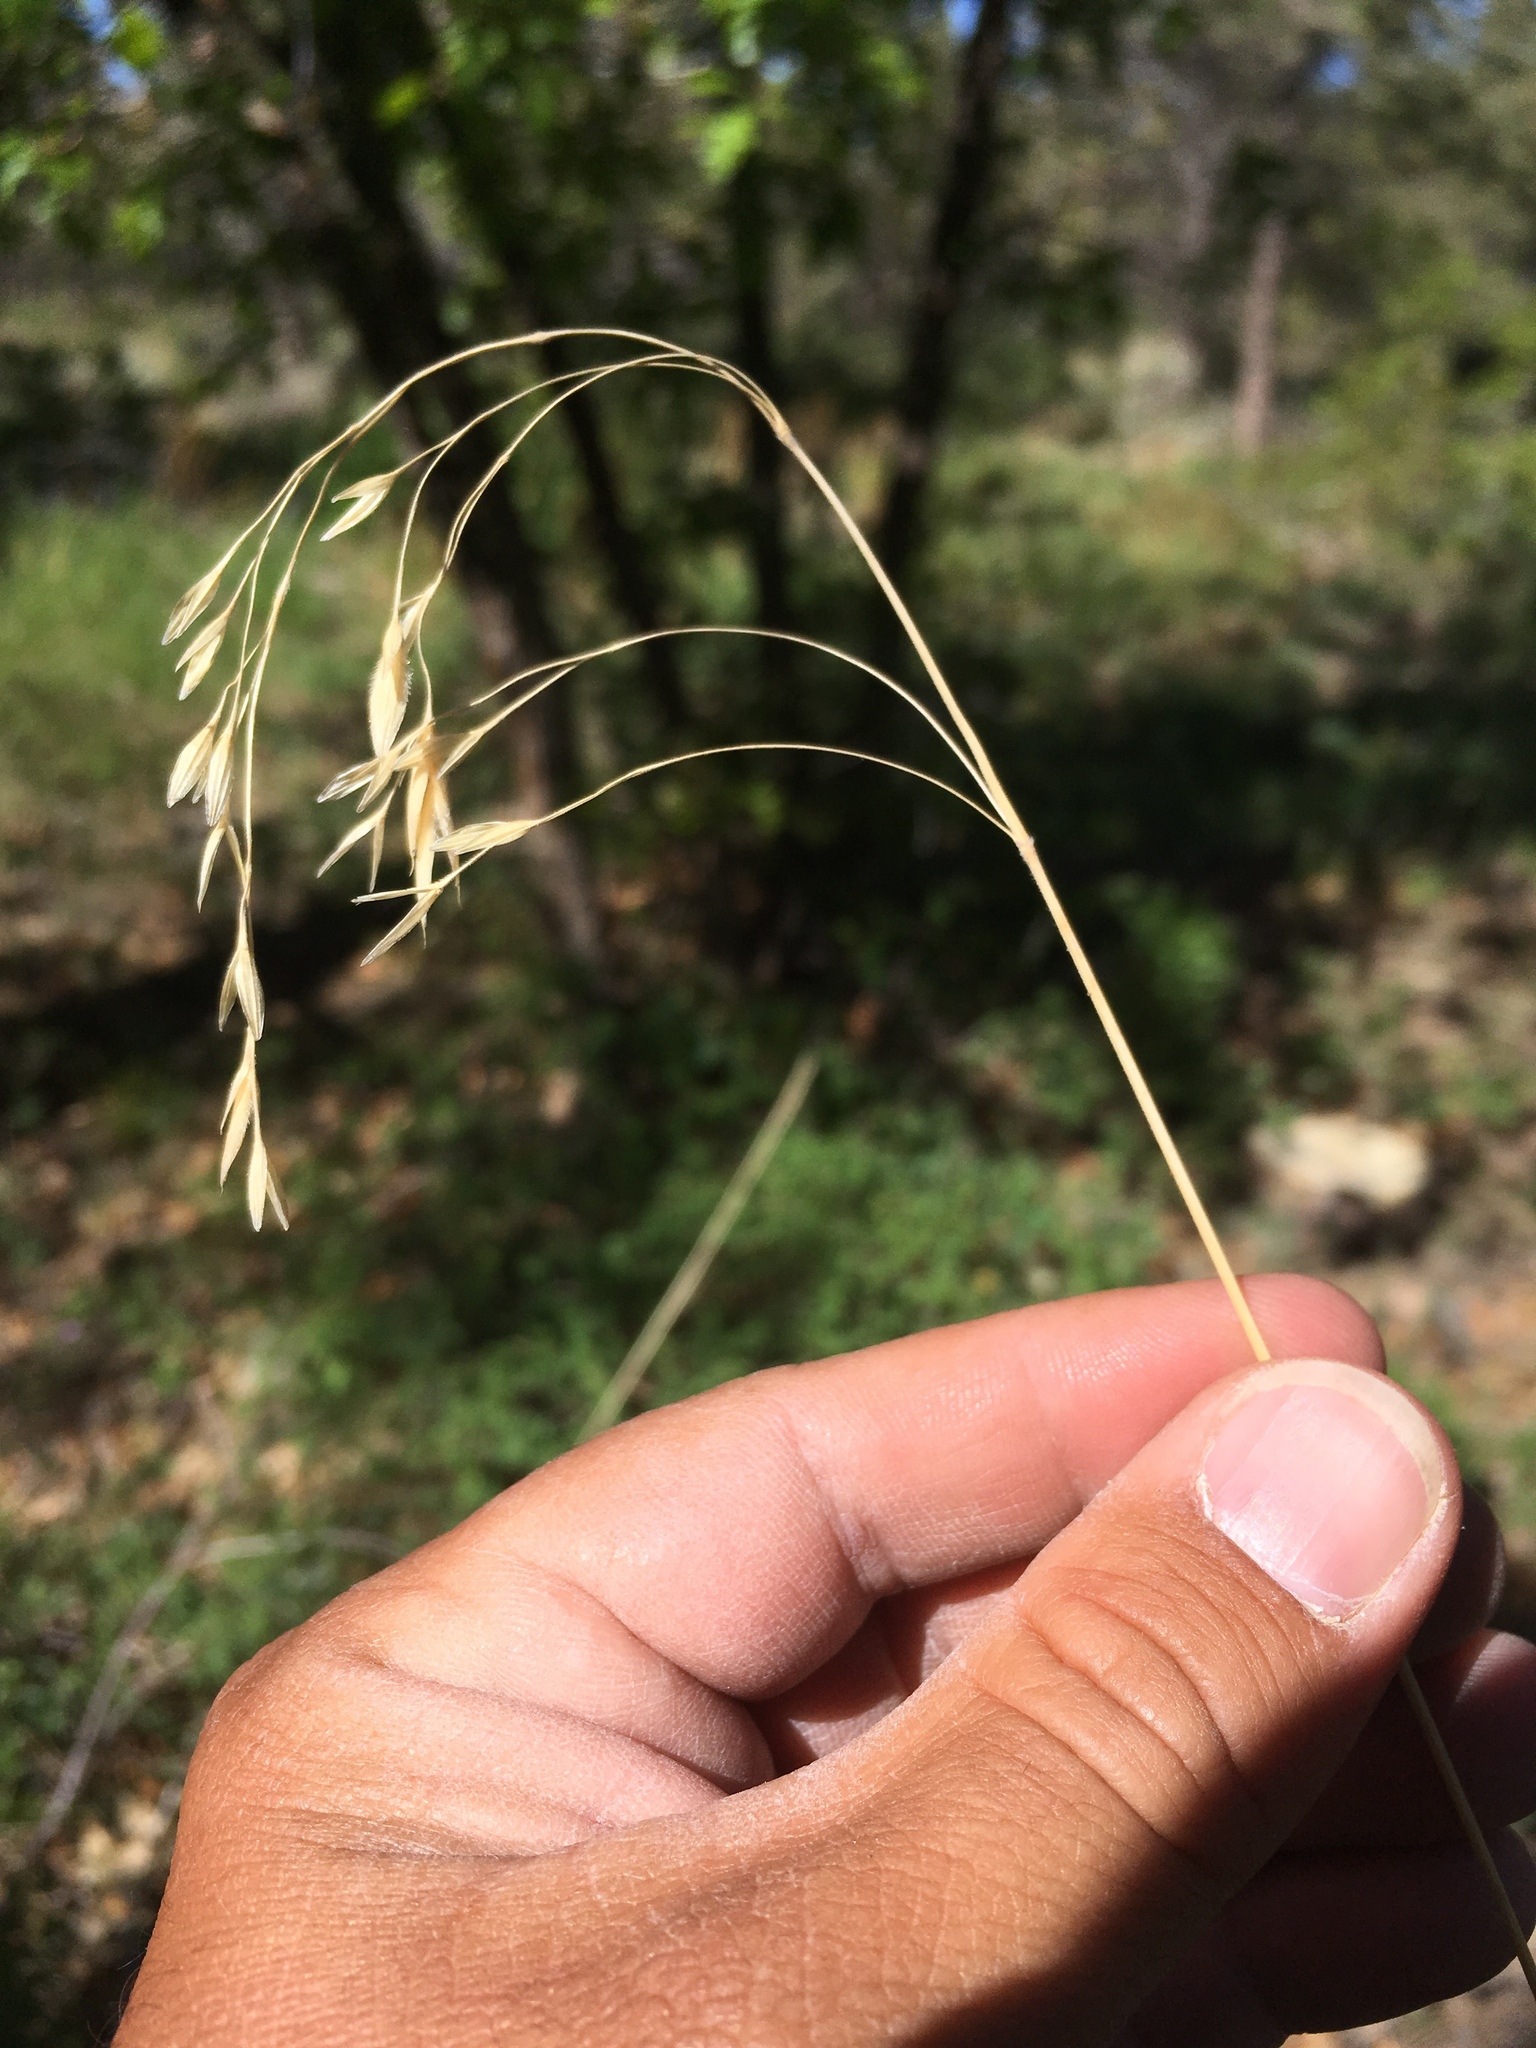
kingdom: Plantae
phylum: Tracheophyta
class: Liliopsida
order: Poales
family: Poaceae
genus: Bromus
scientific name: Bromus porteri
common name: Nodding brome
